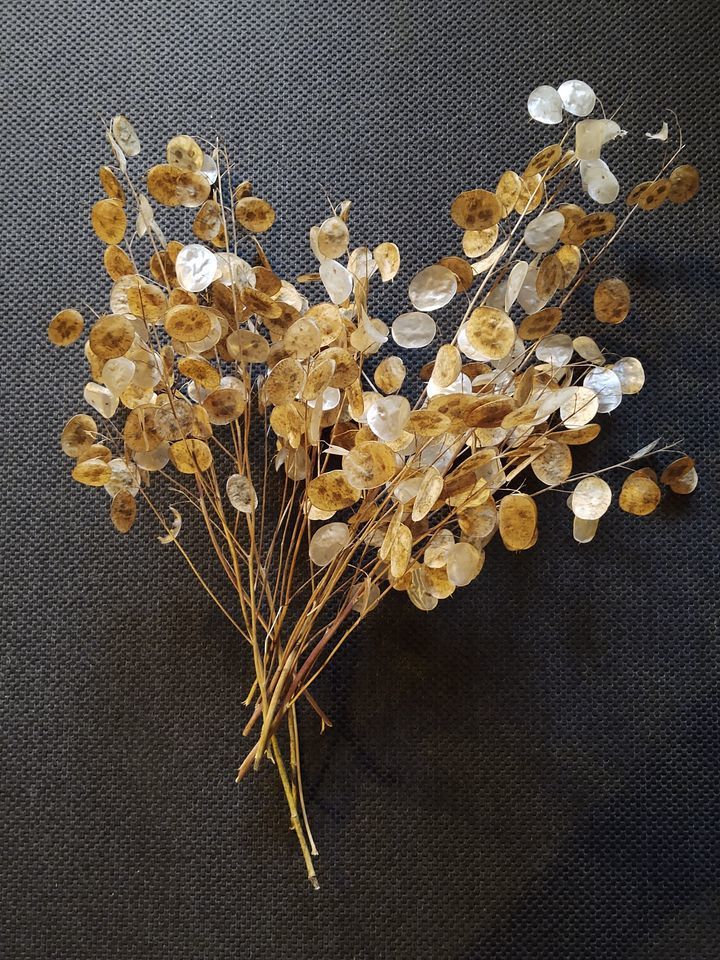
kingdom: Plantae
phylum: Tracheophyta
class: Magnoliopsida
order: Brassicales
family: Brassicaceae
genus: Lunaria
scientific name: Lunaria annua
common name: Honesty
